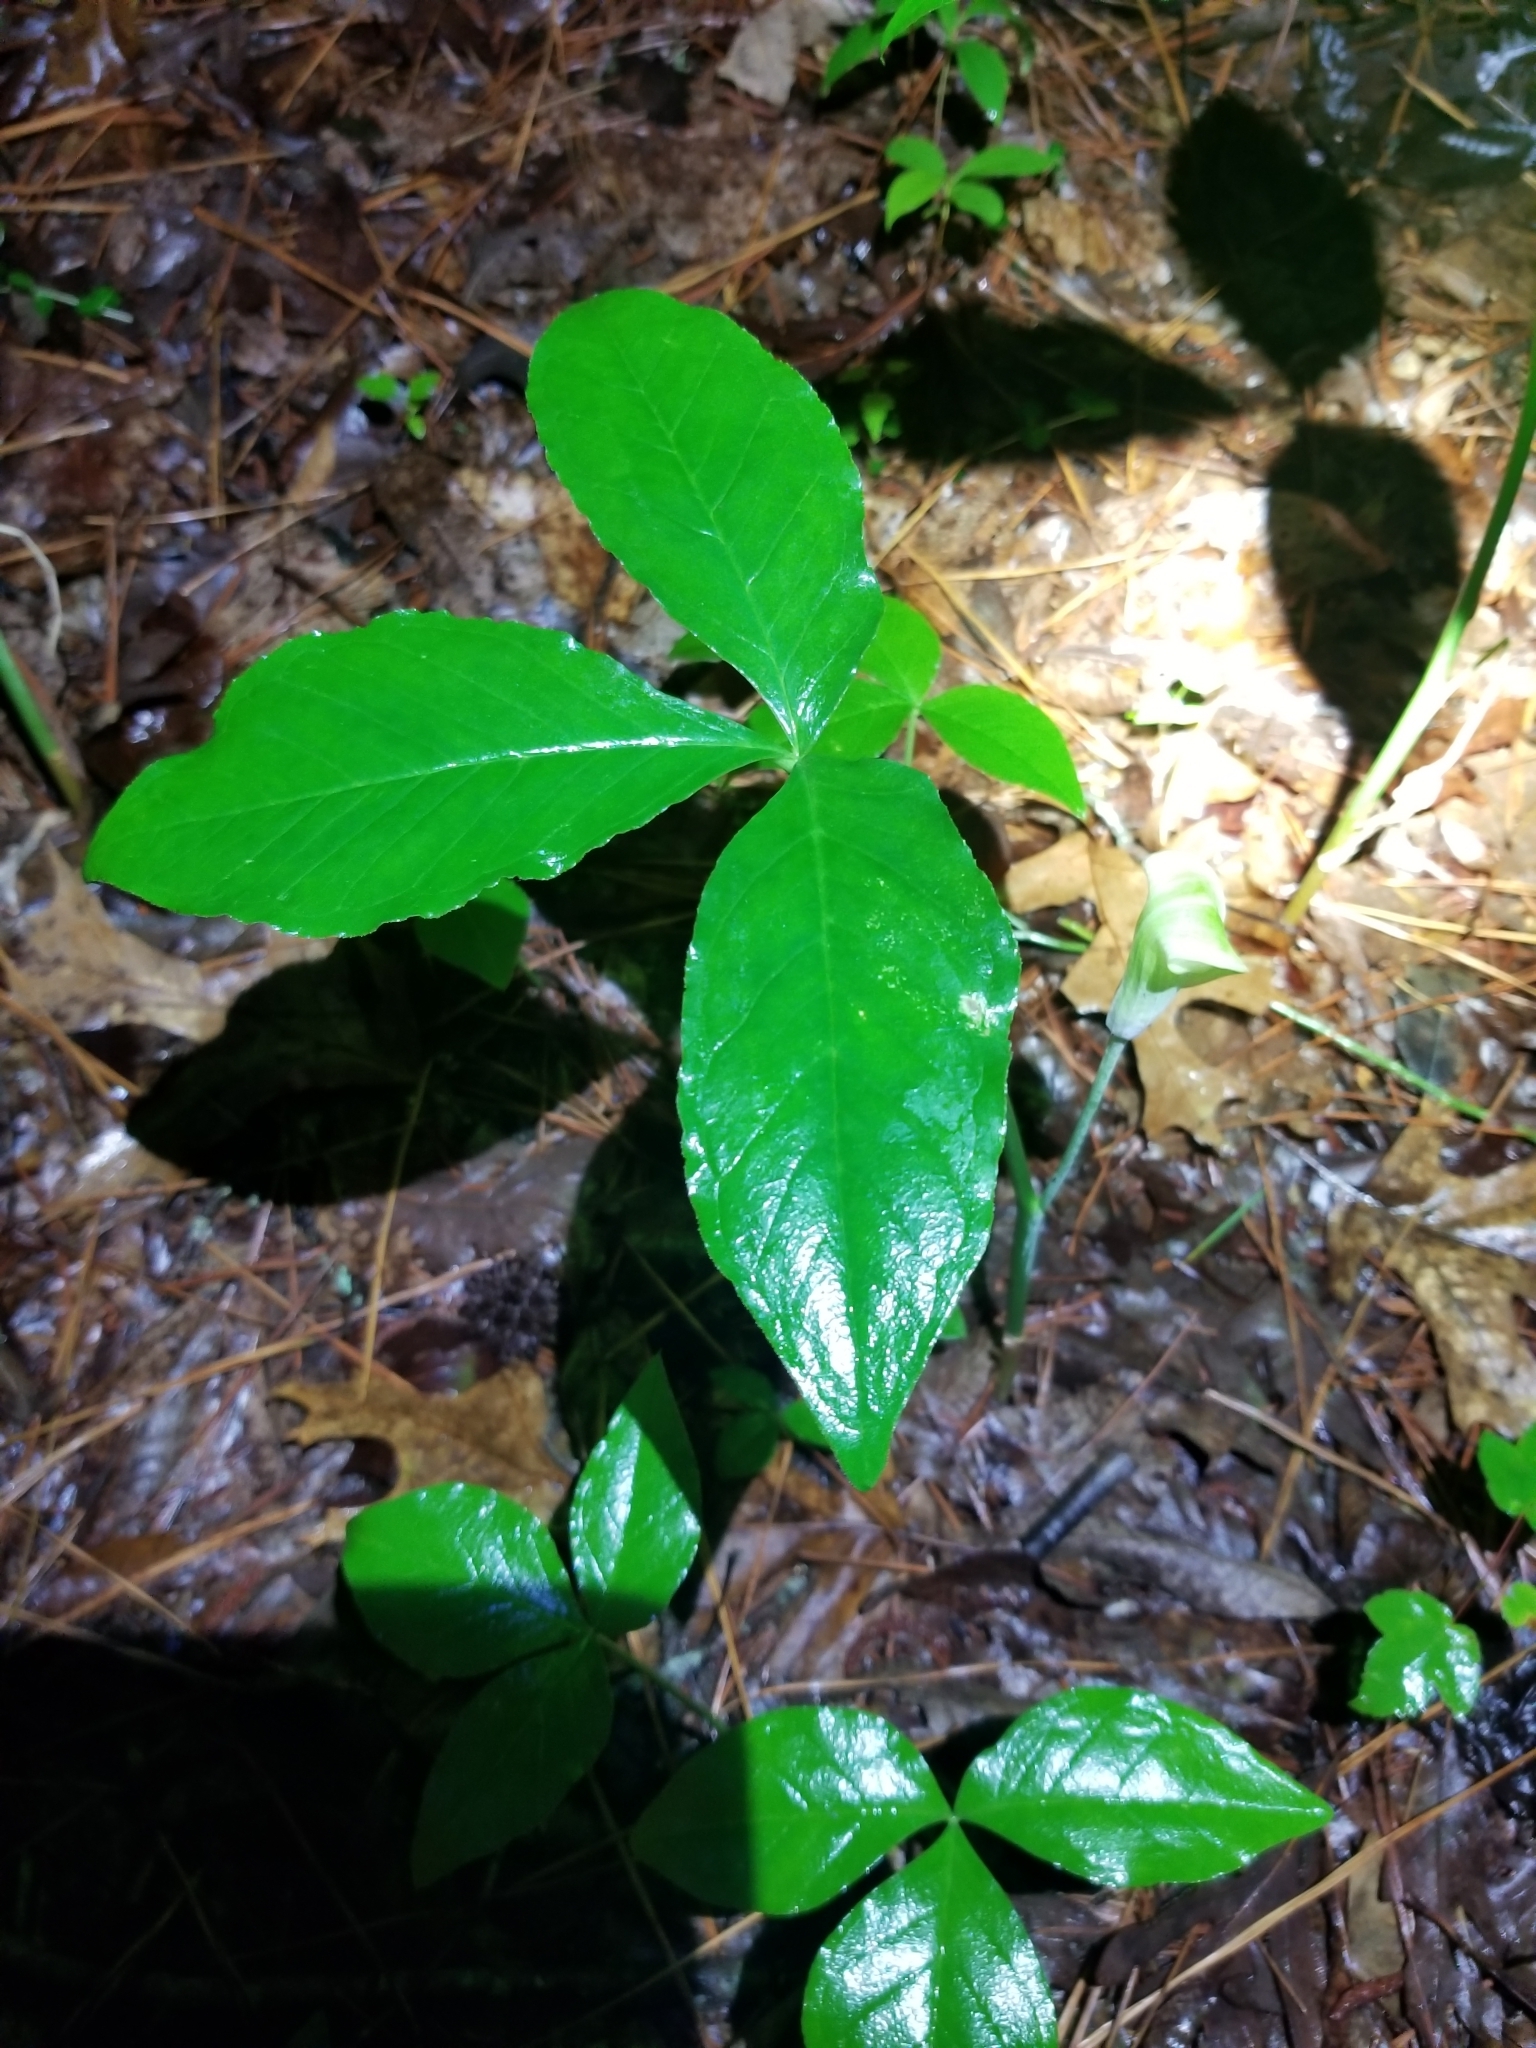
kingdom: Plantae
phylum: Tracheophyta
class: Liliopsida
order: Alismatales
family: Araceae
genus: Arisaema
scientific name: Arisaema triphyllum
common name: Jack-in-the-pulpit
